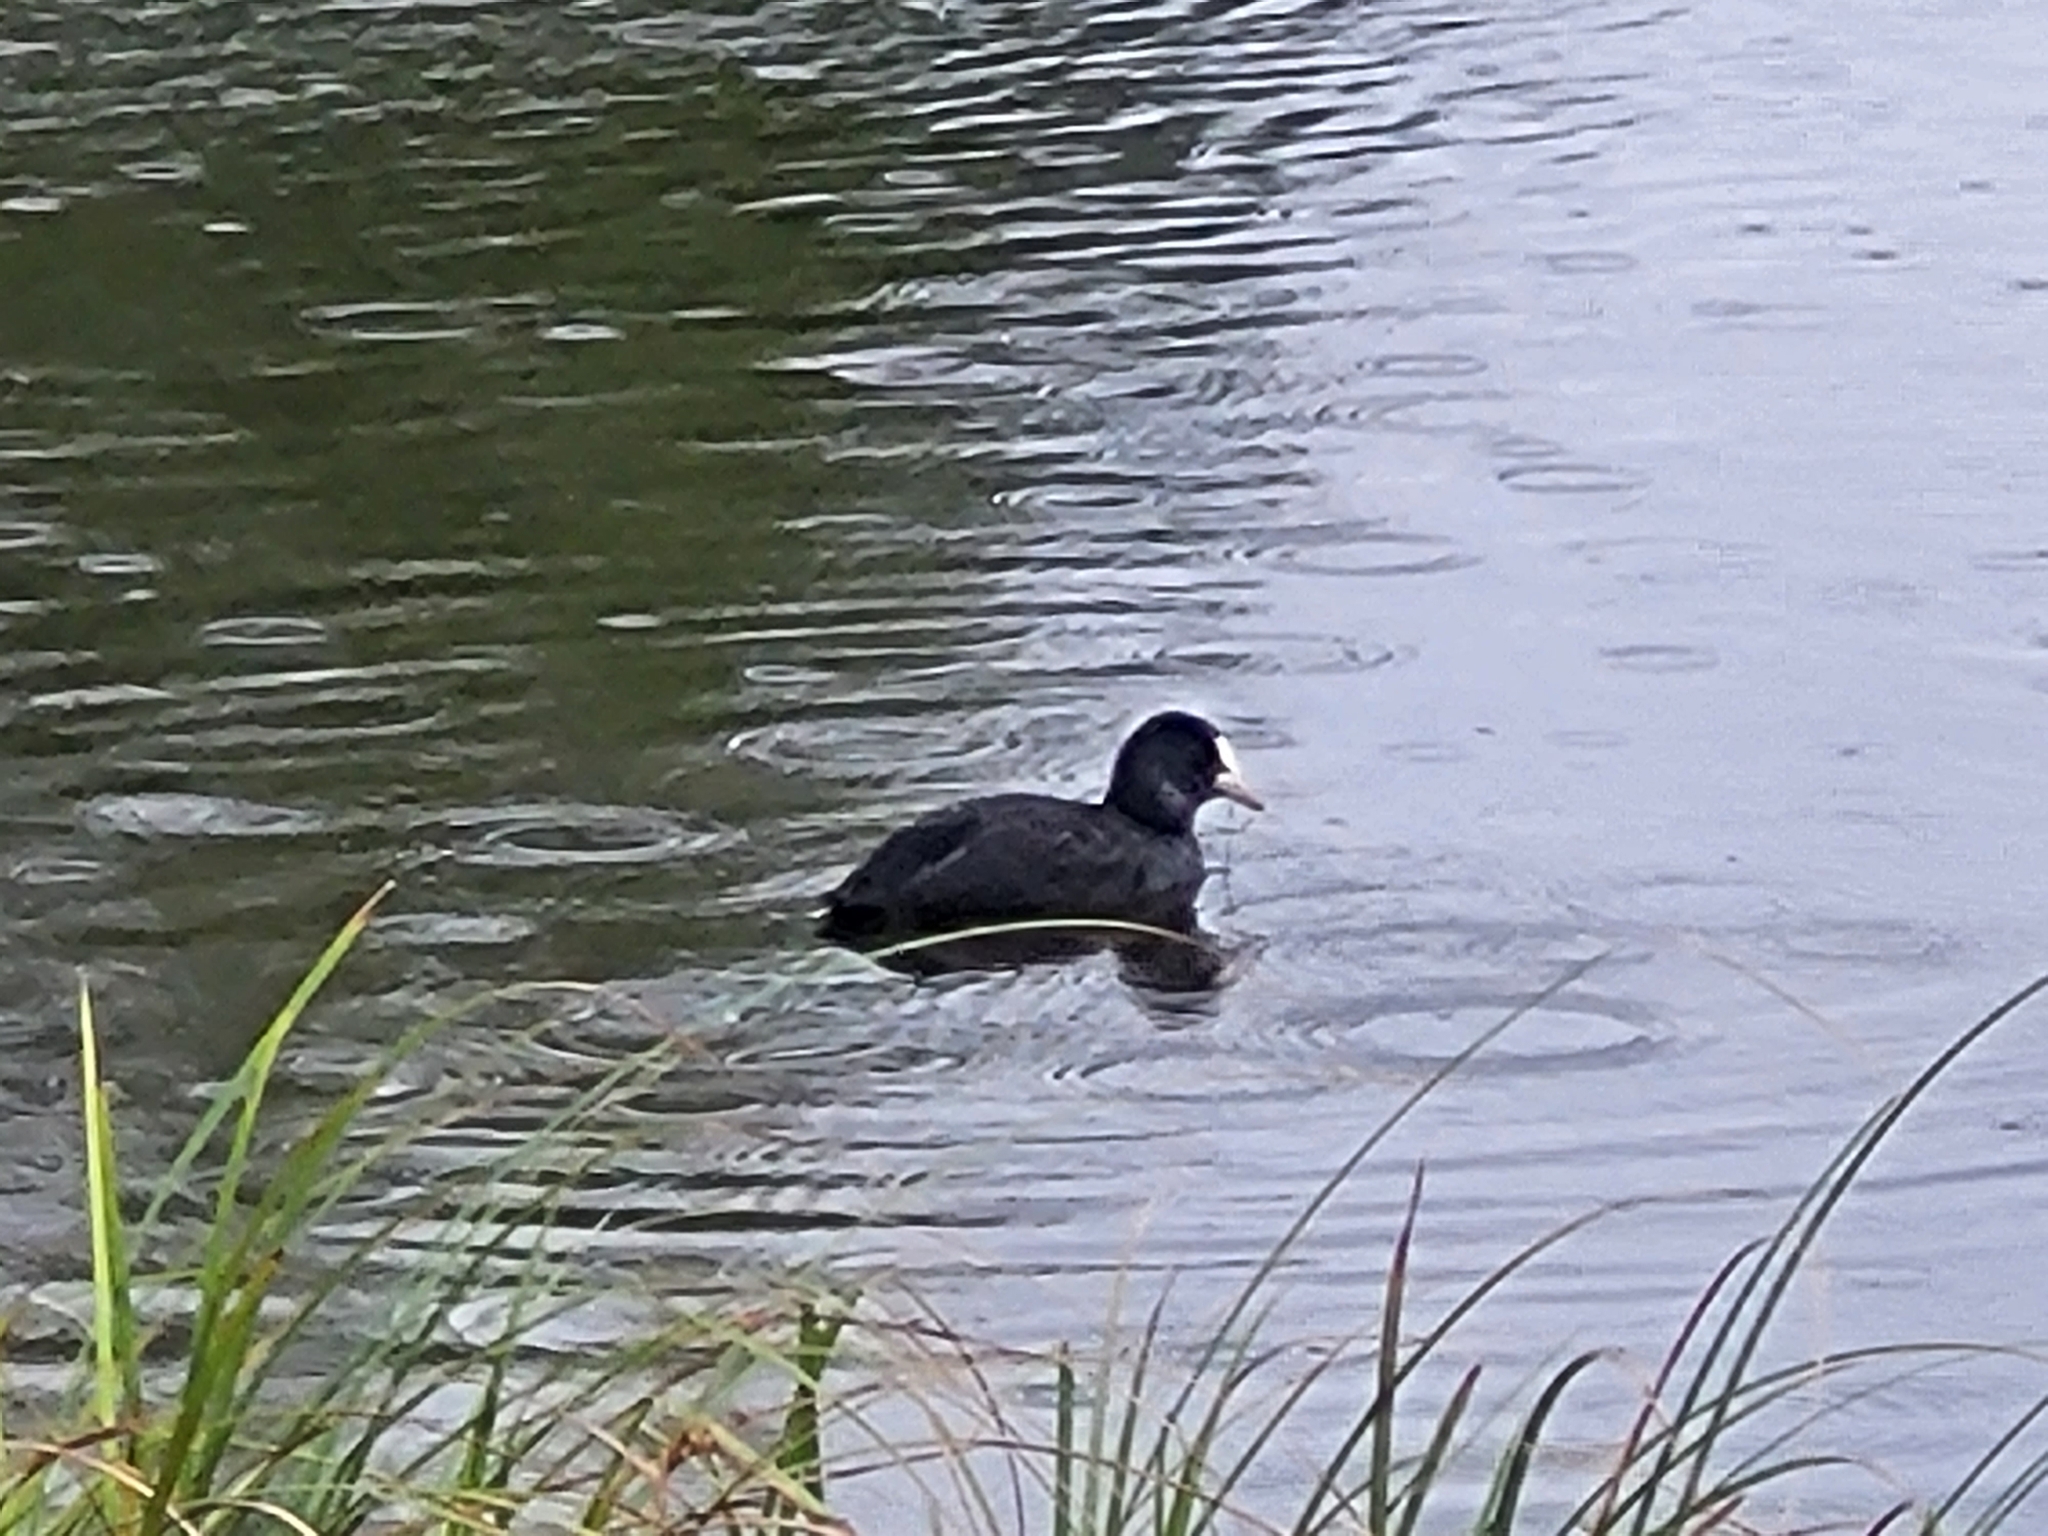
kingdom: Animalia
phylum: Chordata
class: Aves
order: Gruiformes
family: Rallidae
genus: Fulica
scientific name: Fulica atra
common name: Eurasian coot
